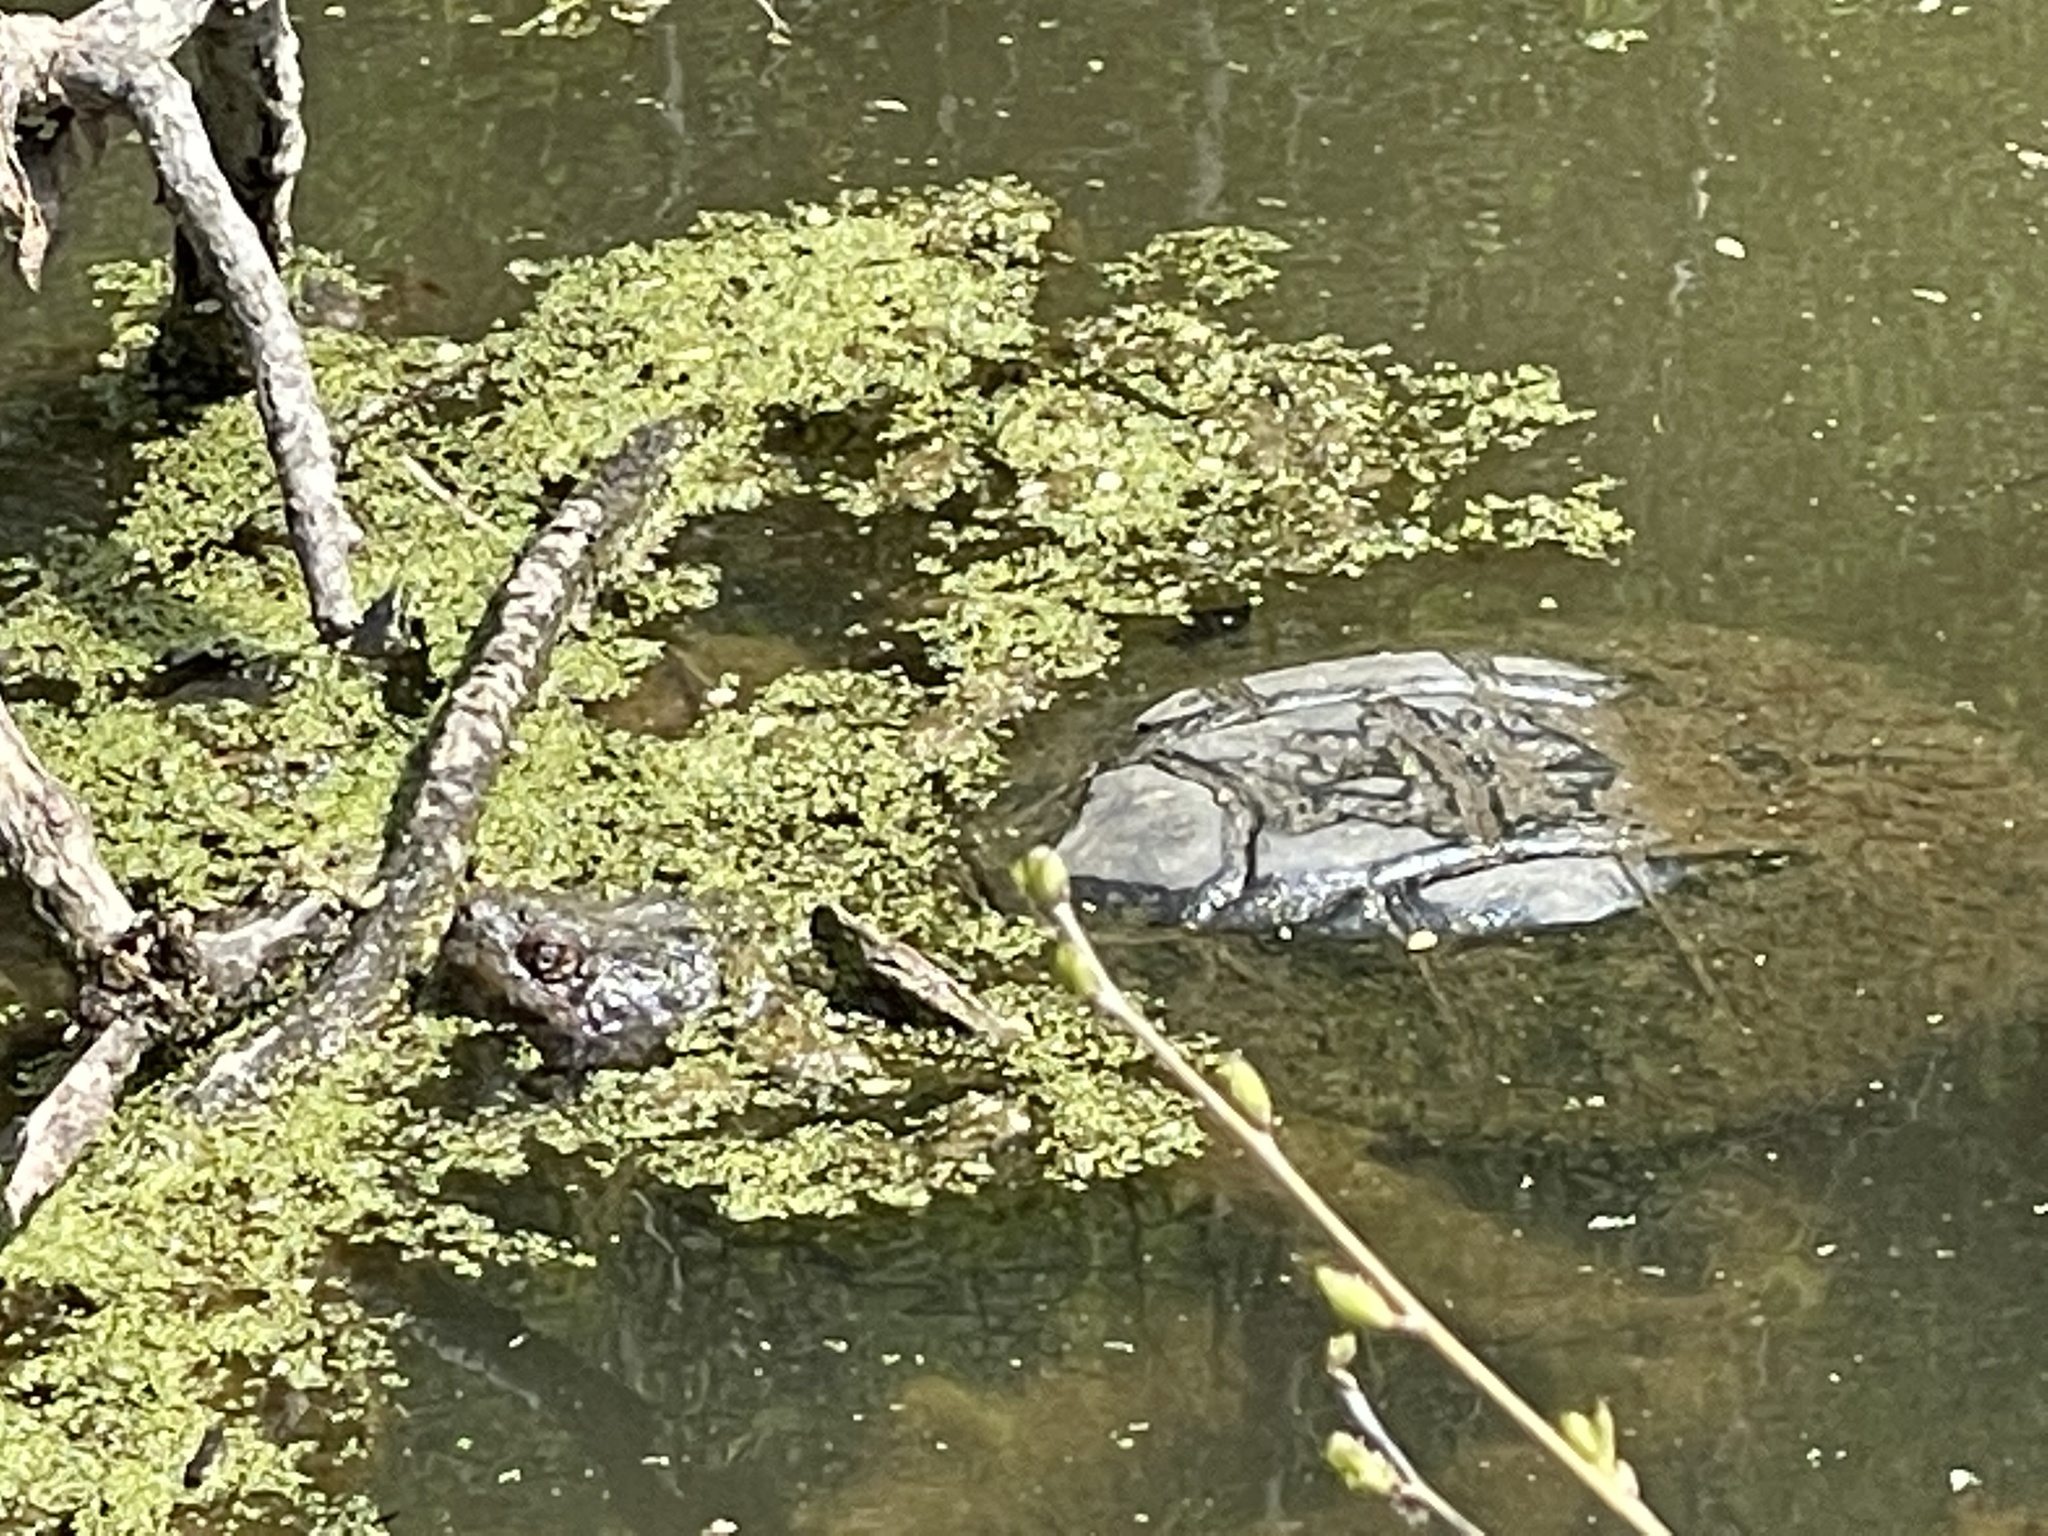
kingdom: Animalia
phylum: Chordata
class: Testudines
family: Chelydridae
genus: Chelydra
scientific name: Chelydra serpentina
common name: Common snapping turtle
